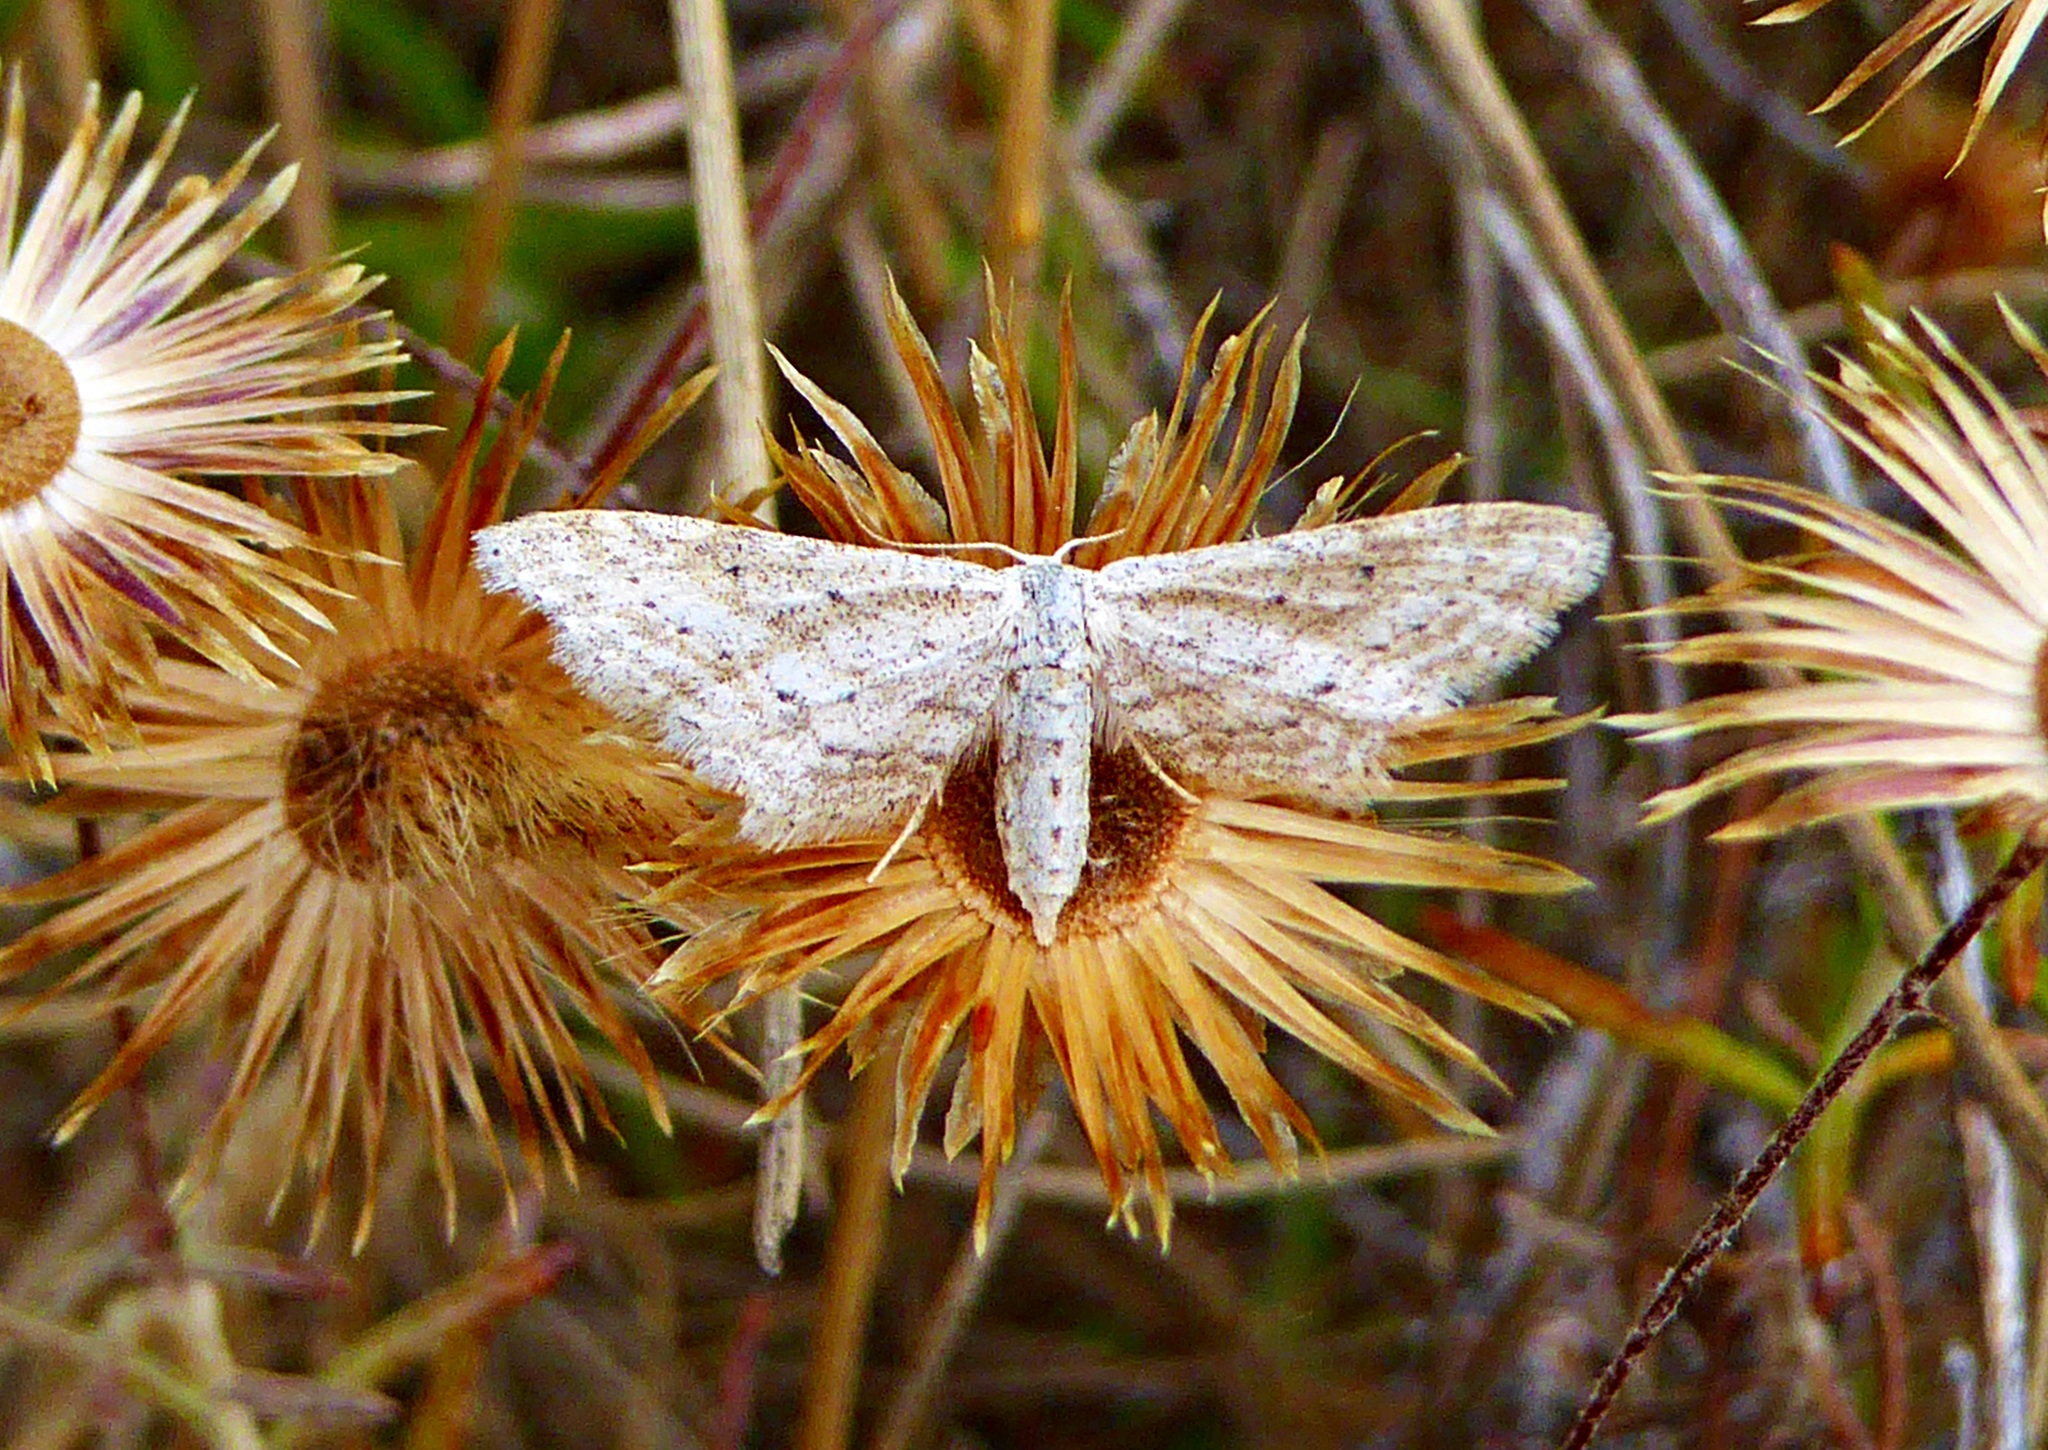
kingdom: Animalia
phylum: Arthropoda
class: Insecta
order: Lepidoptera
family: Geometridae
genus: Idaea
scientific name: Idaea longaria
